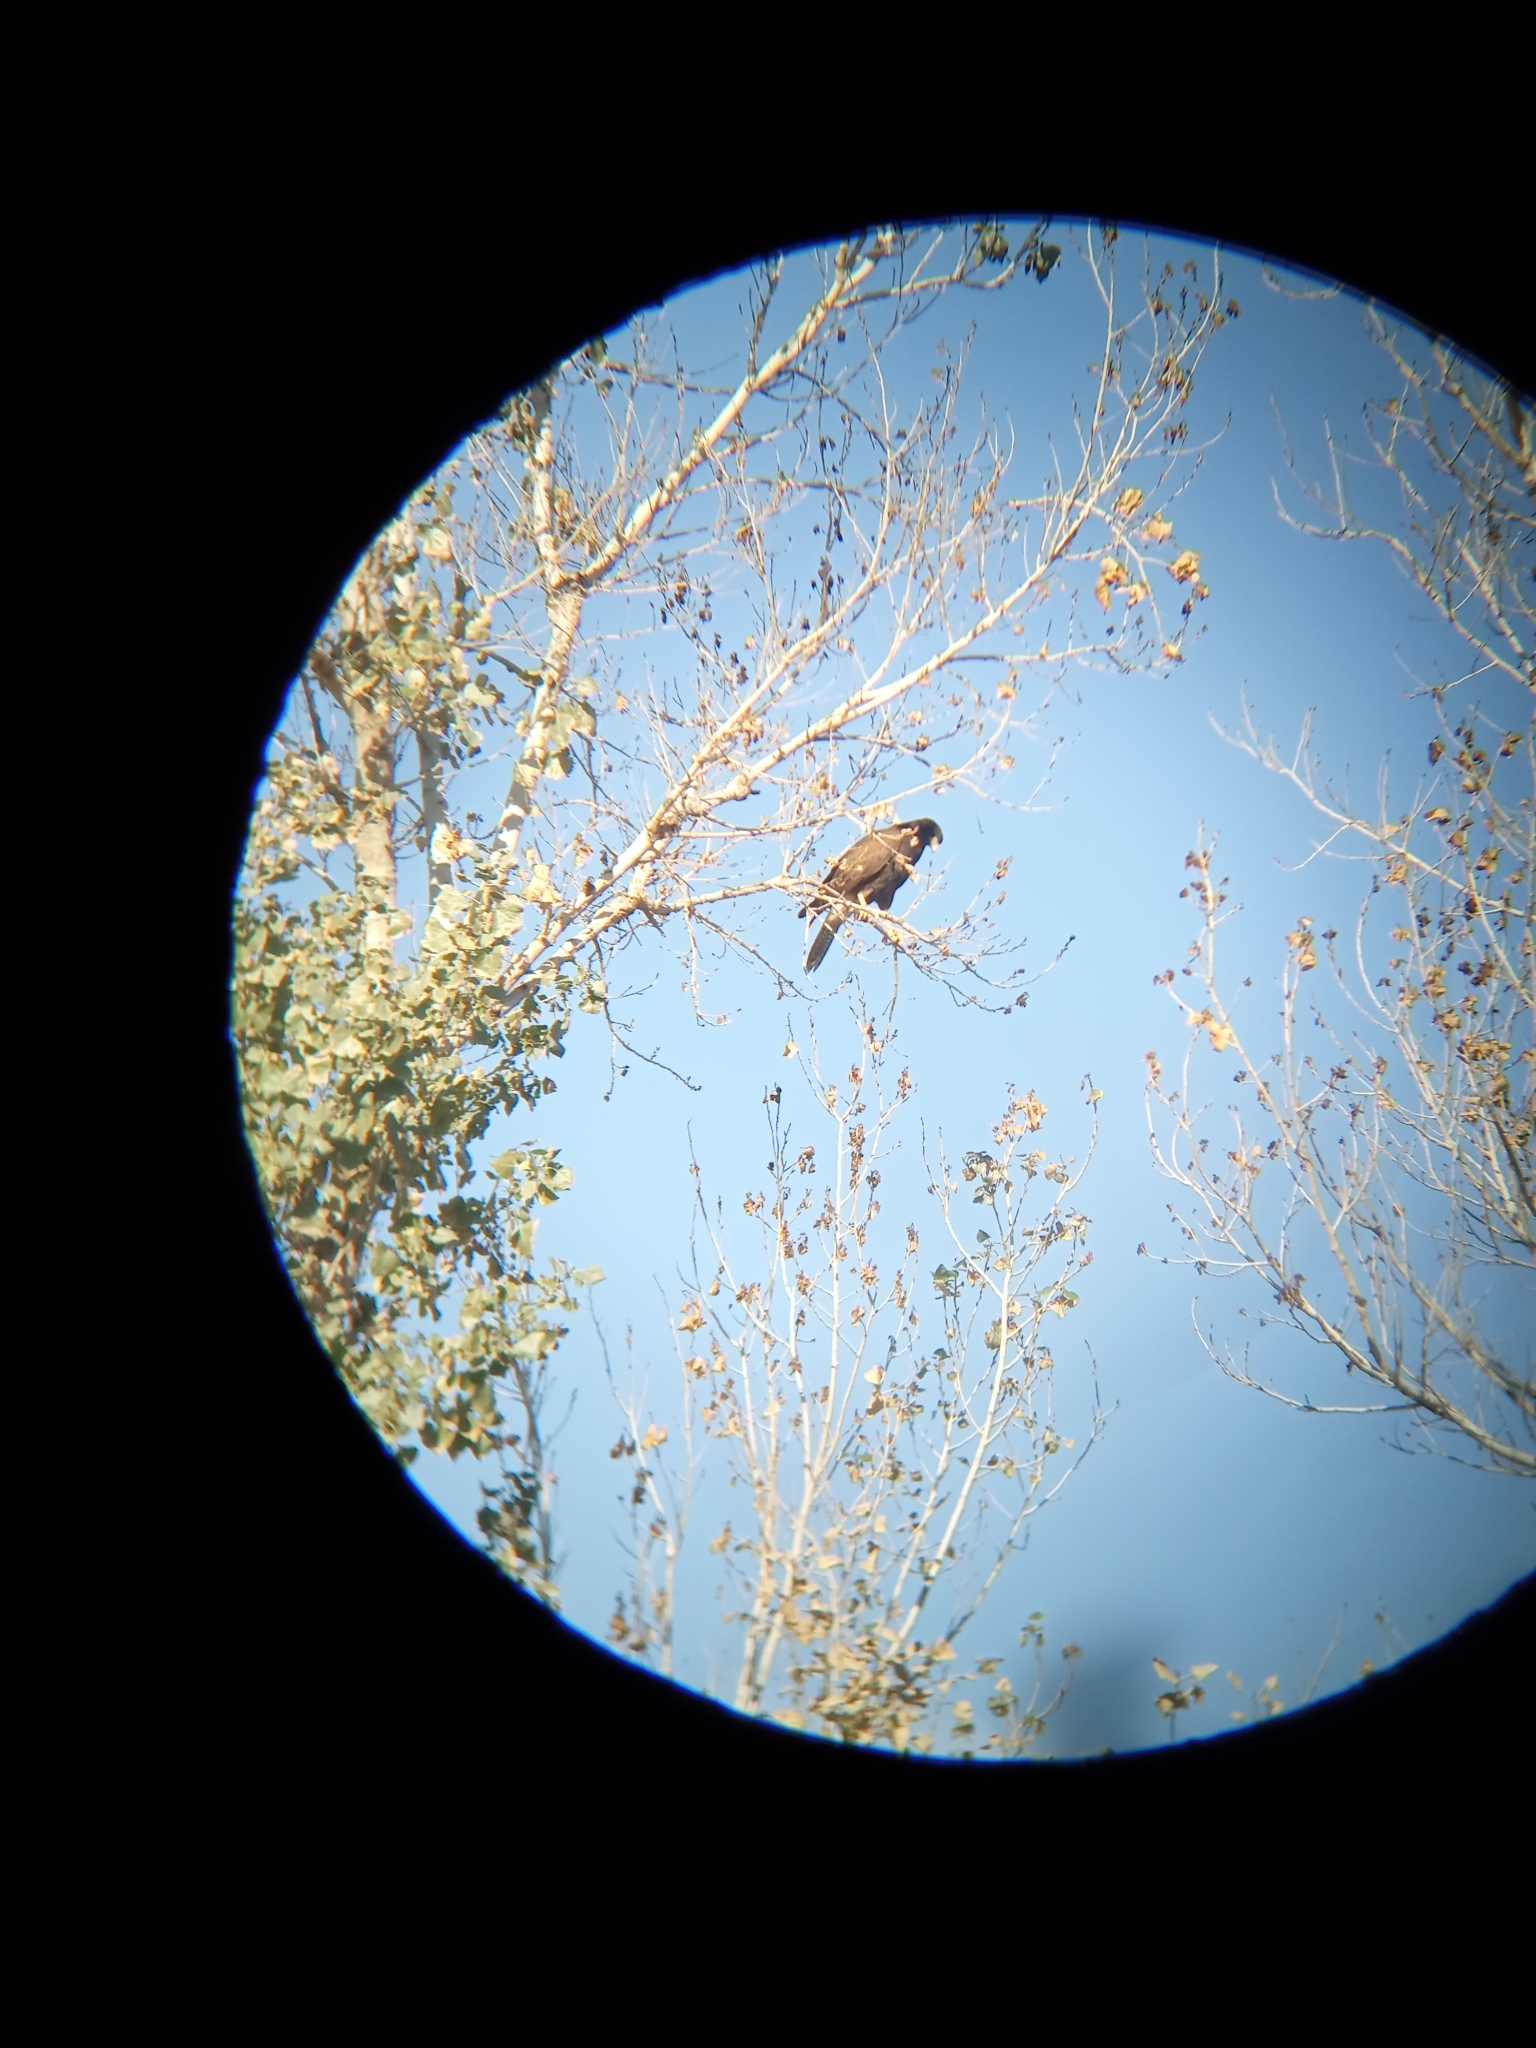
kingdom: Animalia
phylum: Chordata
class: Aves
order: Accipitriformes
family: Accipitridae
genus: Parabuteo
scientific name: Parabuteo unicinctus
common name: Harris's hawk
